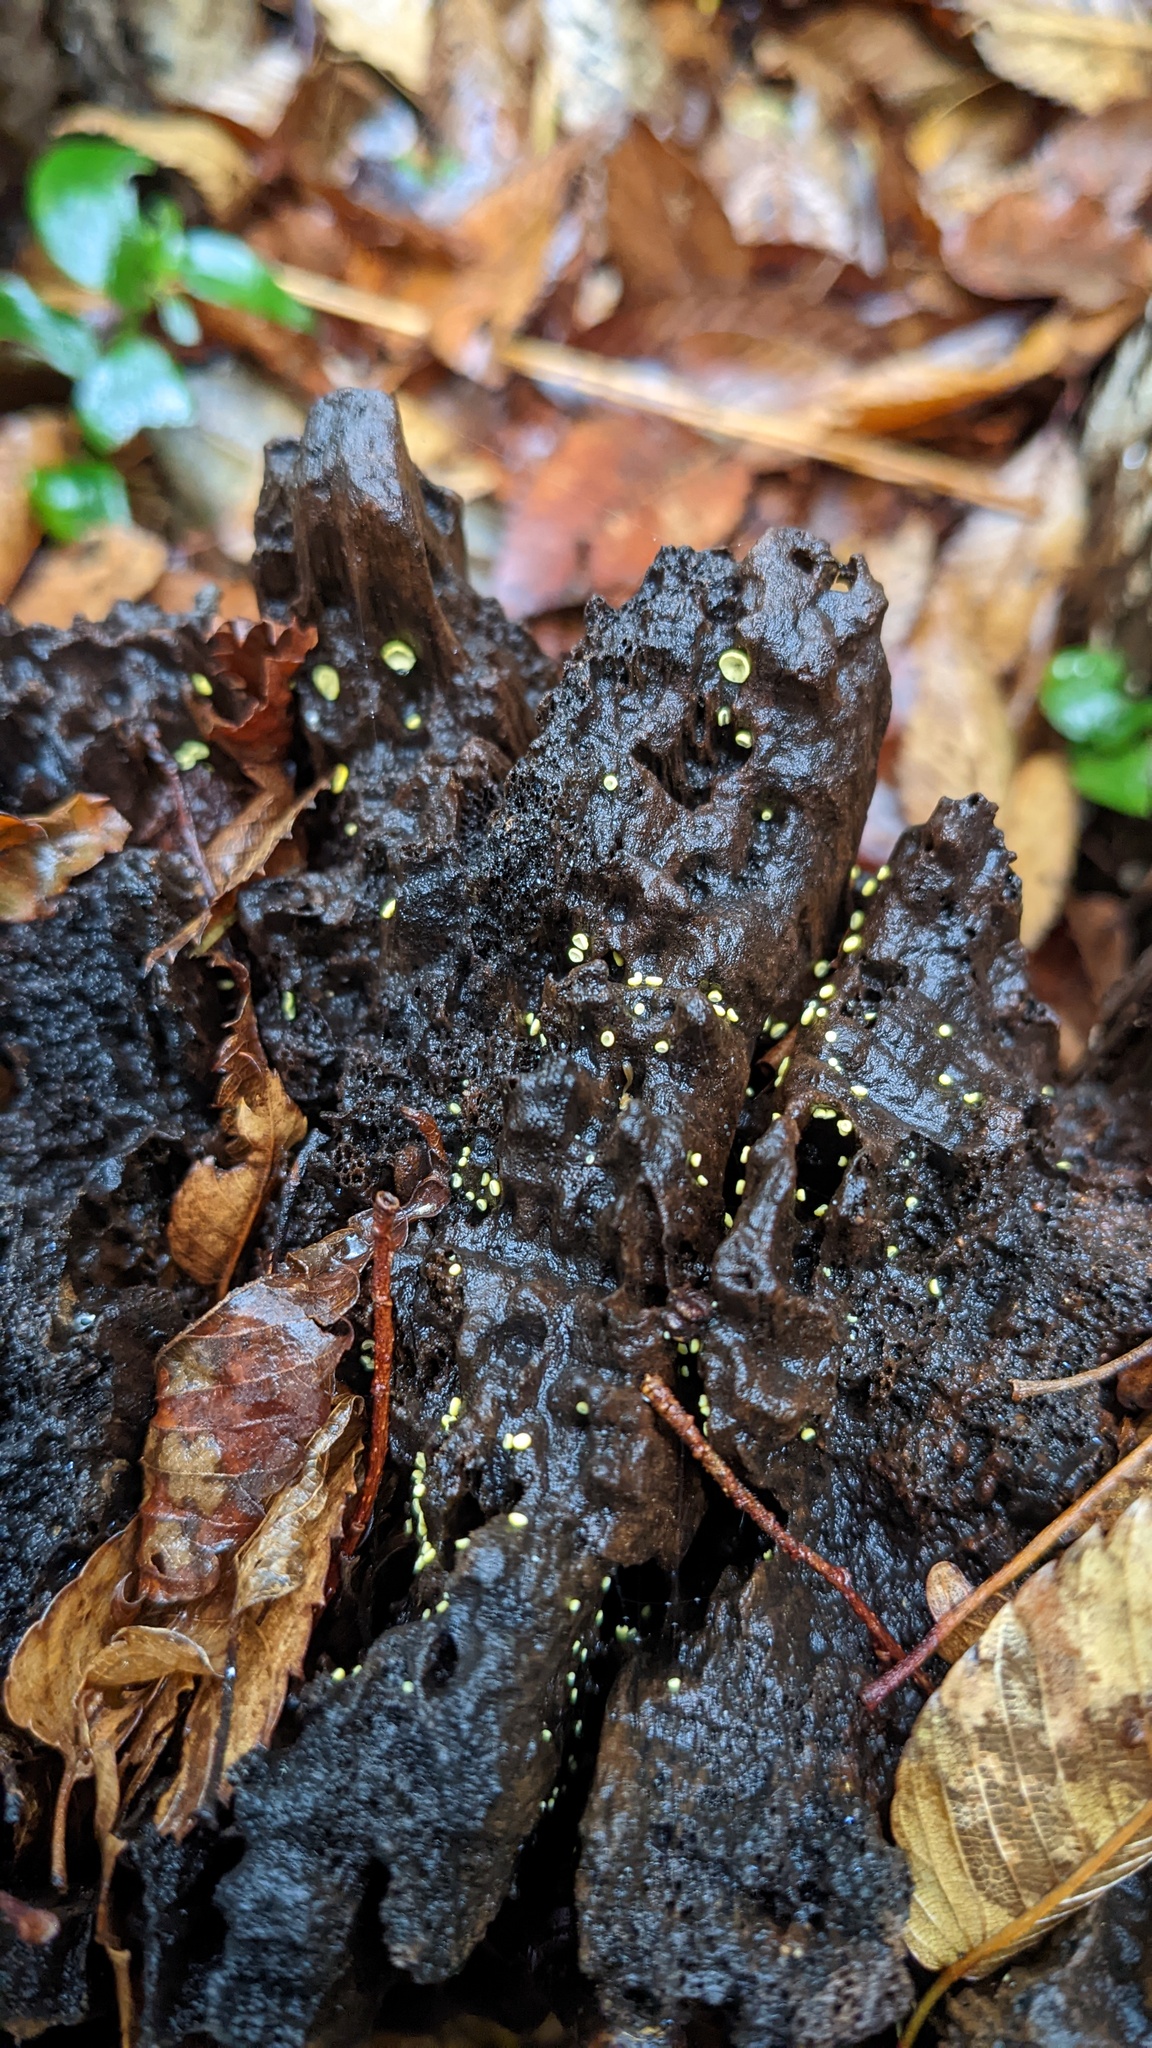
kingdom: Fungi
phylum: Ascomycota
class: Leotiomycetes
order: Helotiales
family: Chlorospleniaceae
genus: Chlorosplenium
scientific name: Chlorosplenium chlora
